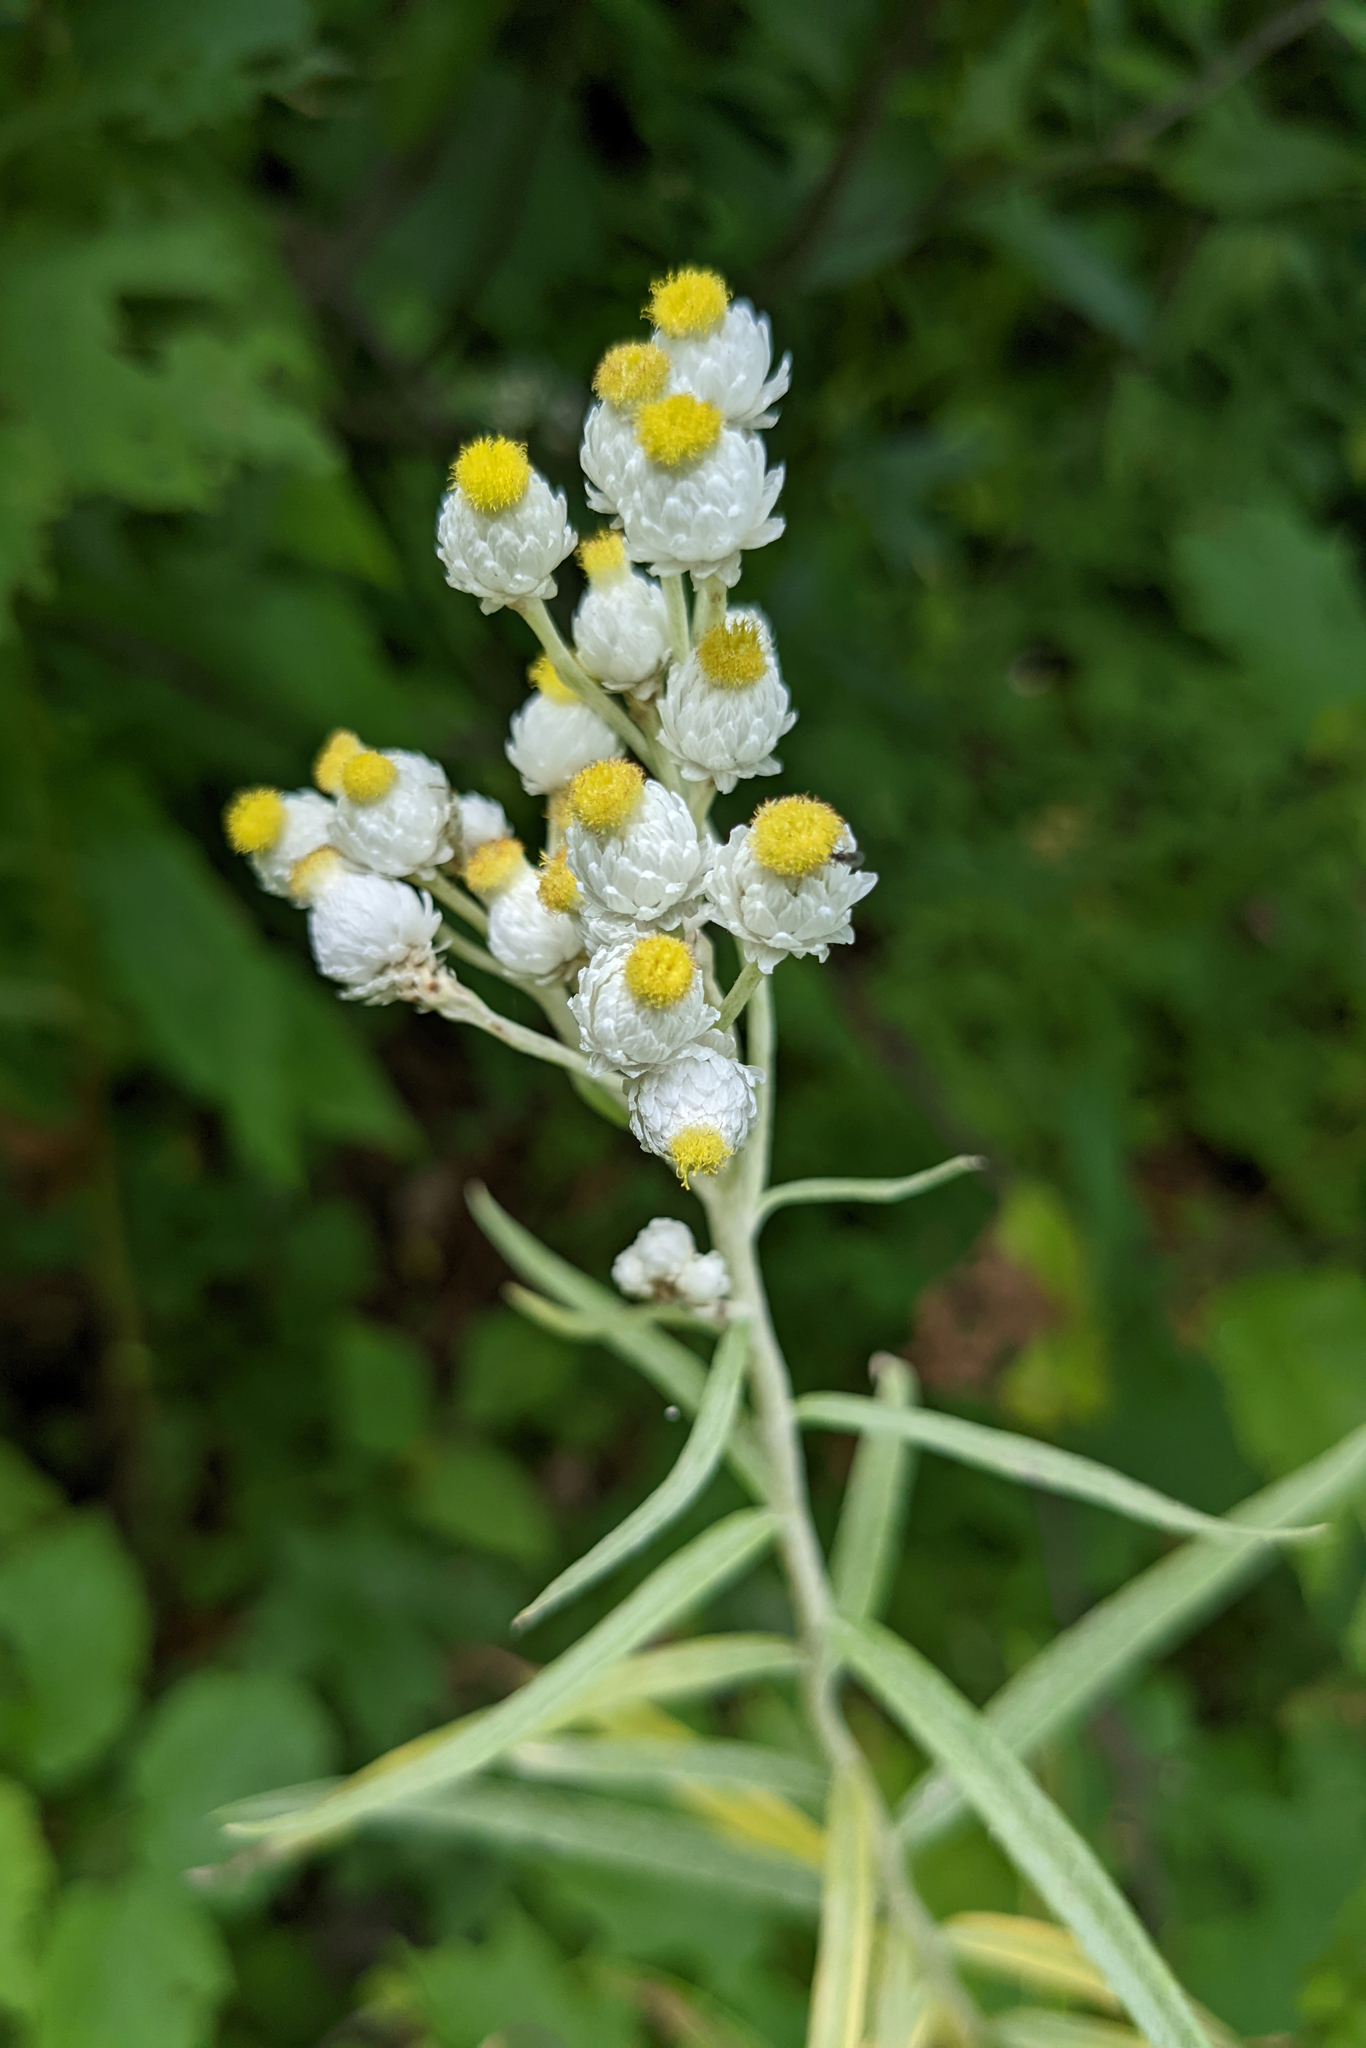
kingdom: Plantae
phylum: Tracheophyta
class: Magnoliopsida
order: Asterales
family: Asteraceae
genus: Anaphalis
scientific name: Anaphalis margaritacea
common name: Pearly everlasting
